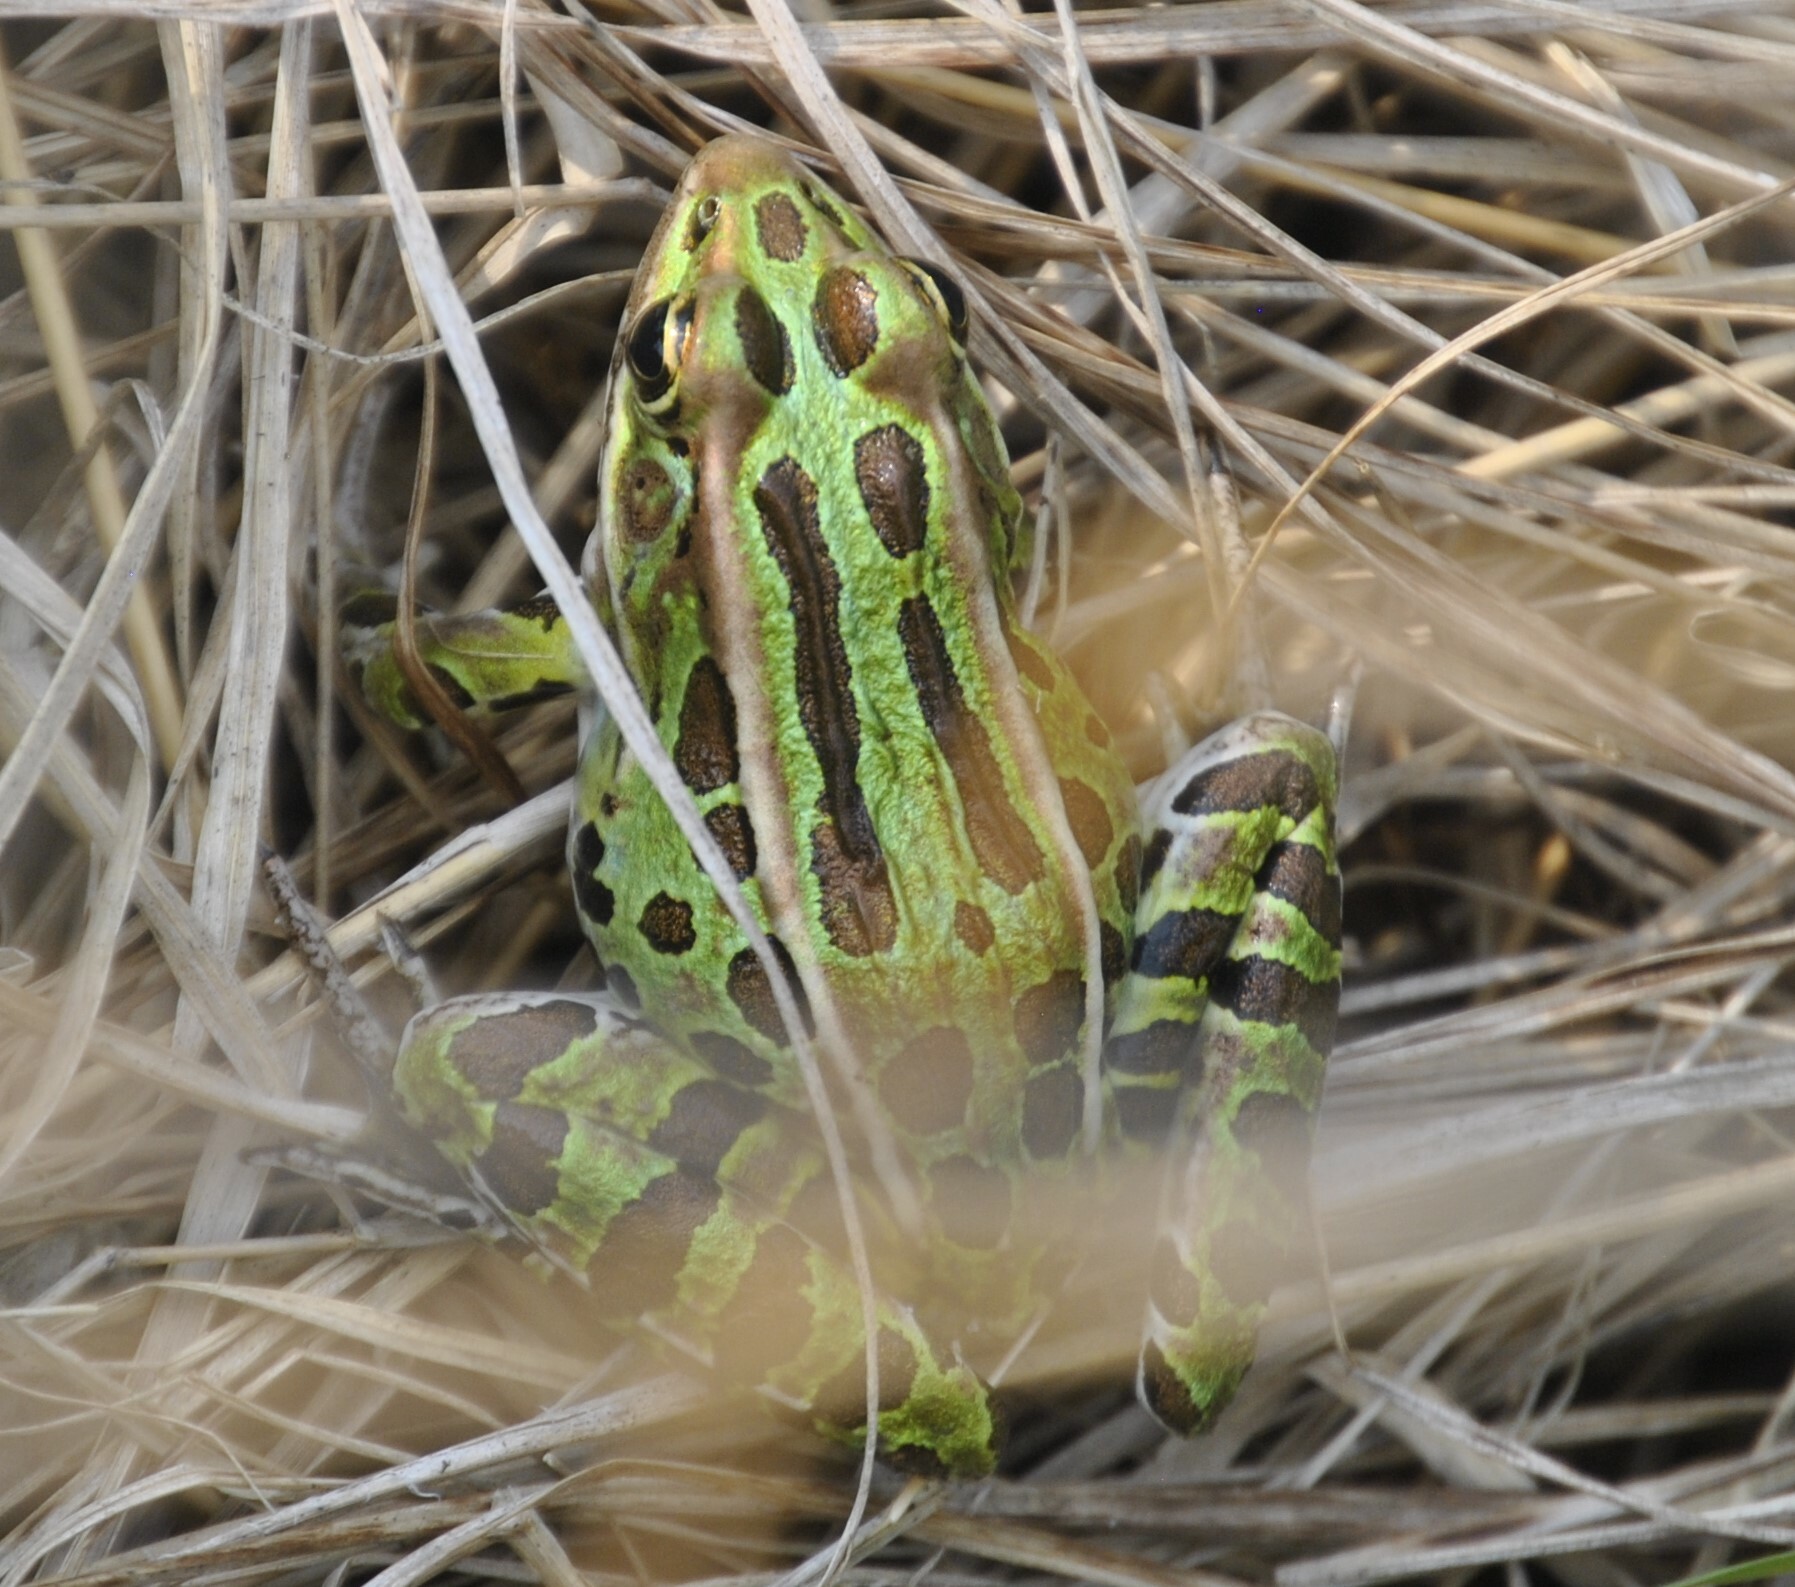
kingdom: Animalia
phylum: Chordata
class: Amphibia
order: Anura
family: Ranidae
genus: Lithobates
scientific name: Lithobates pipiens
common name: Northern leopard frog
